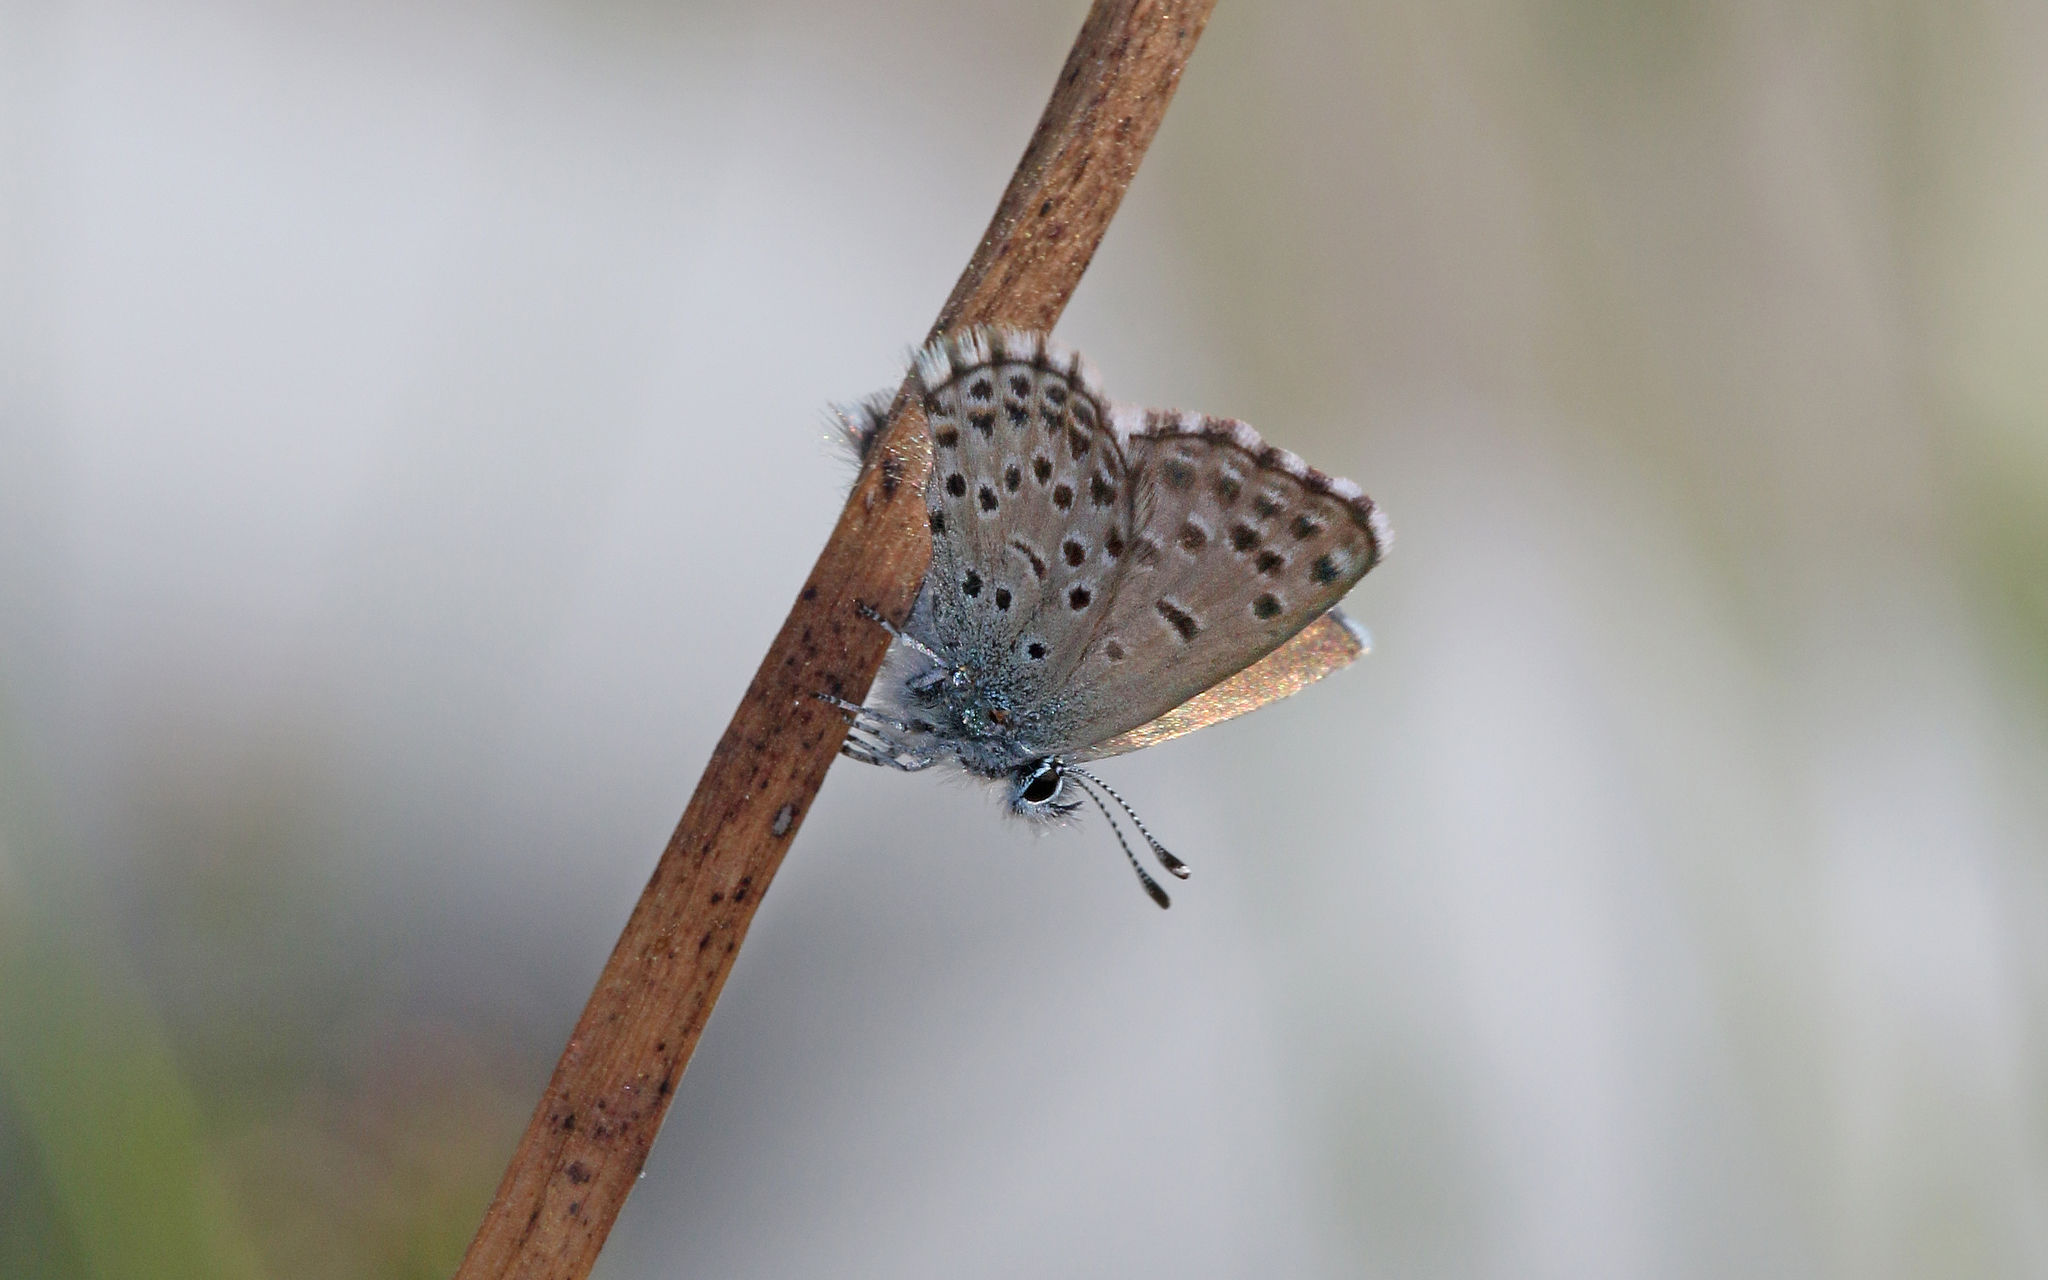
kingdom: Animalia
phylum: Arthropoda
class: Insecta
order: Lepidoptera
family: Lycaenidae
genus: Pseudophilotes
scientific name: Pseudophilotes baton
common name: Baton blue
